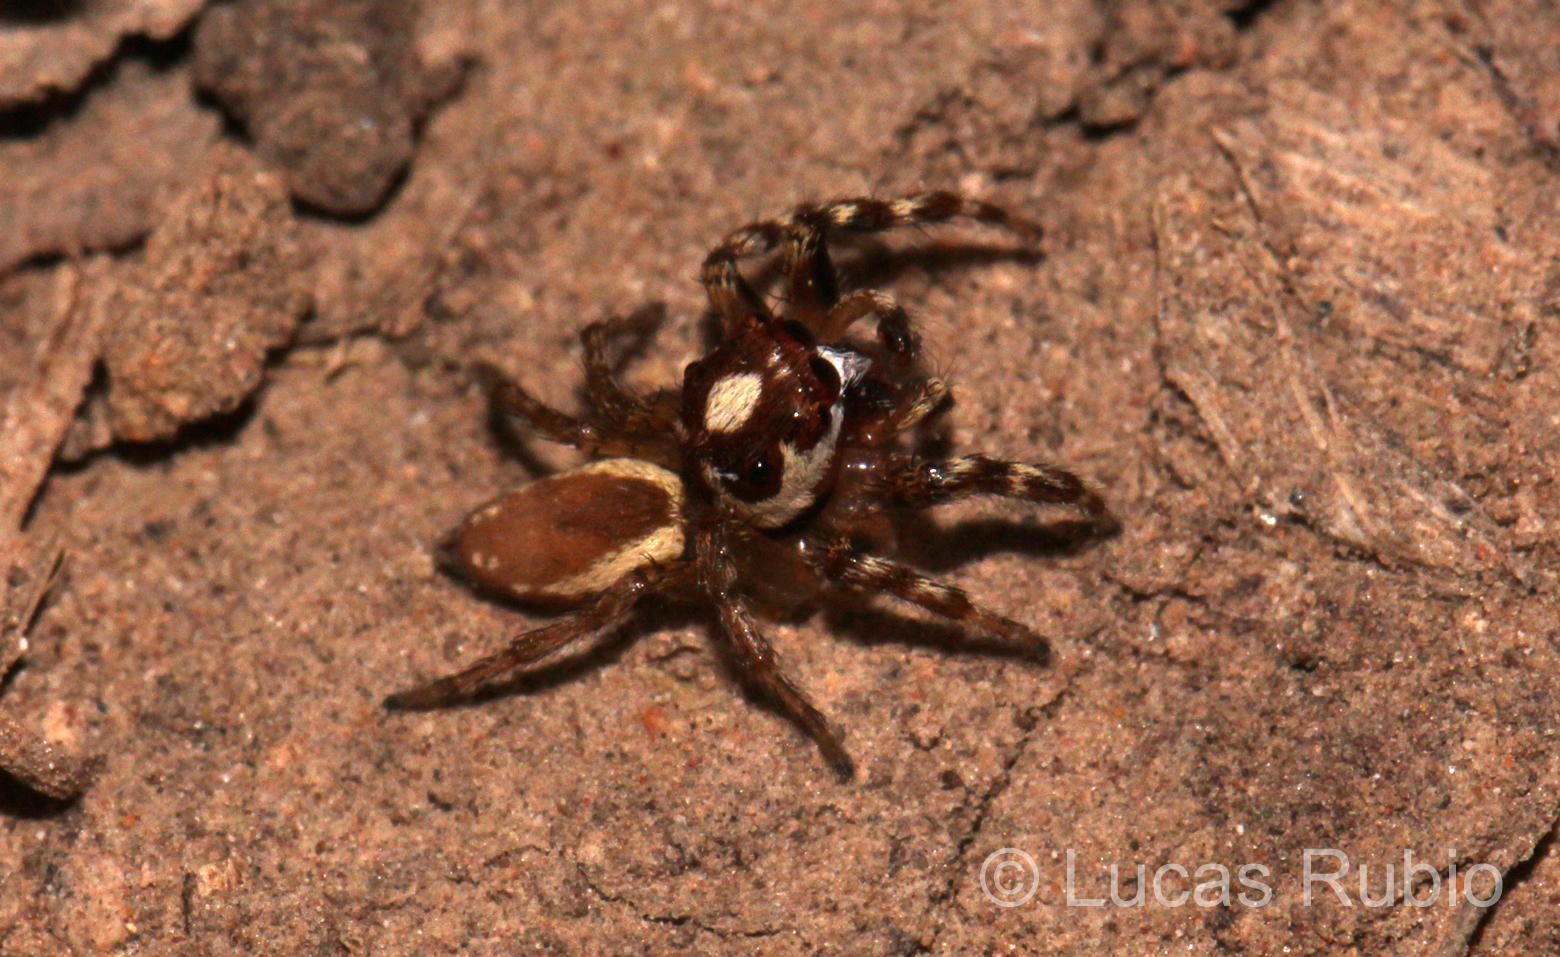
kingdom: Animalia
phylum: Arthropoda
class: Arachnida
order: Araneae
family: Salticidae
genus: Chira
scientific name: Chira gounellei
